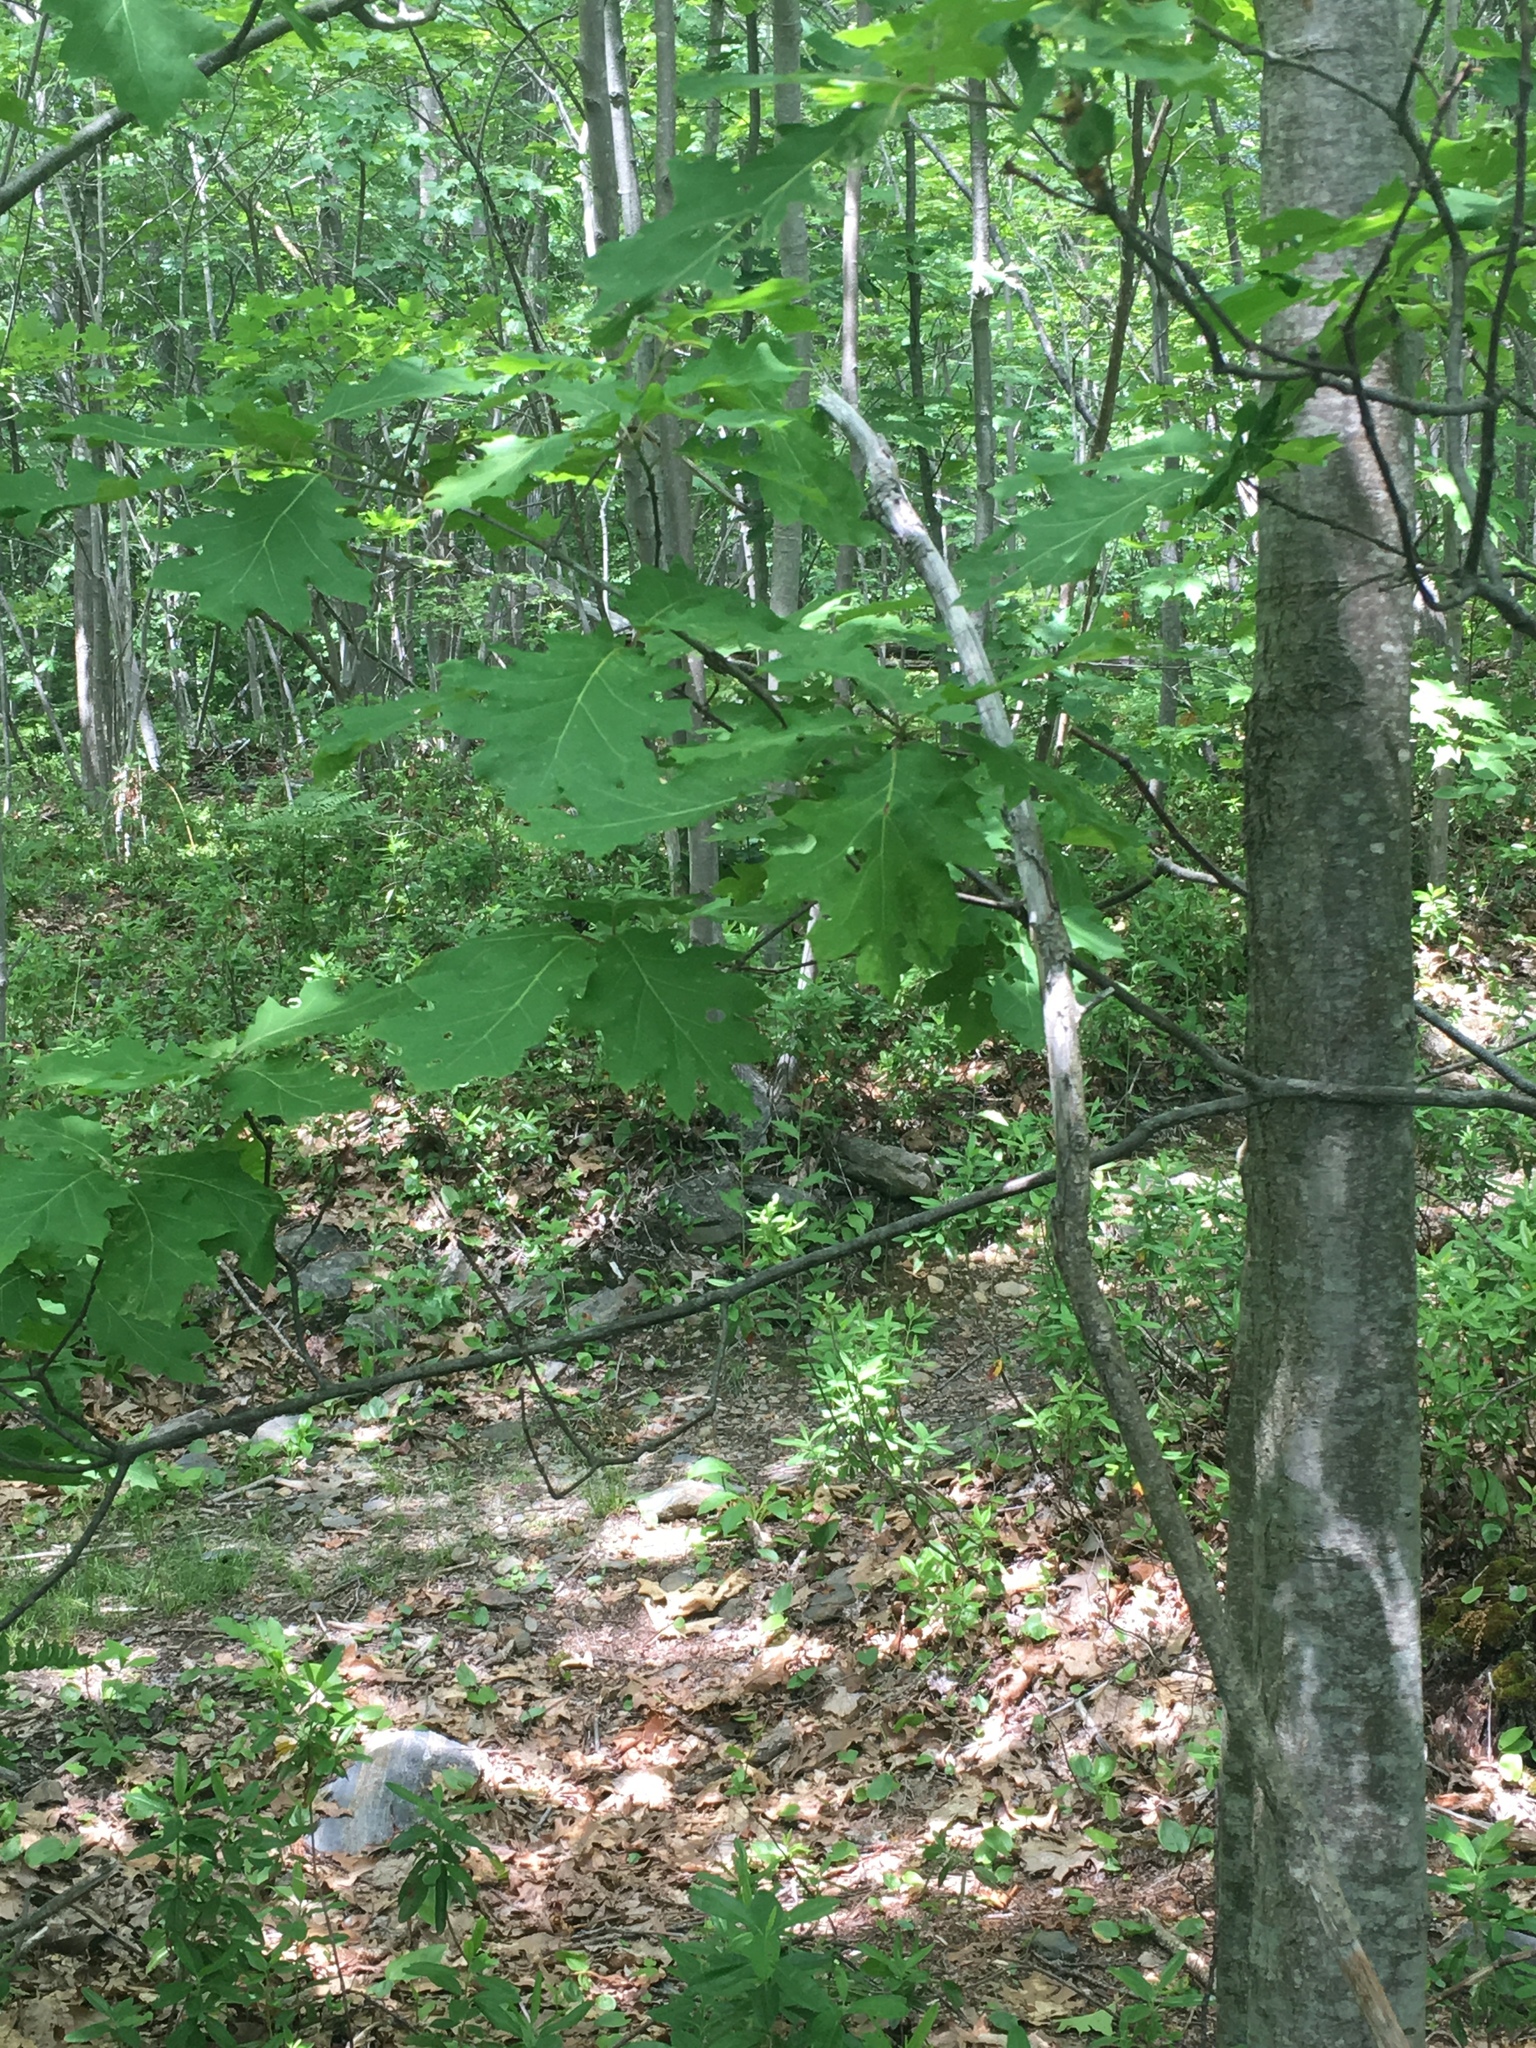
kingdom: Plantae
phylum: Tracheophyta
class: Magnoliopsida
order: Fagales
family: Fagaceae
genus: Quercus
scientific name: Quercus rubra
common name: Red oak
